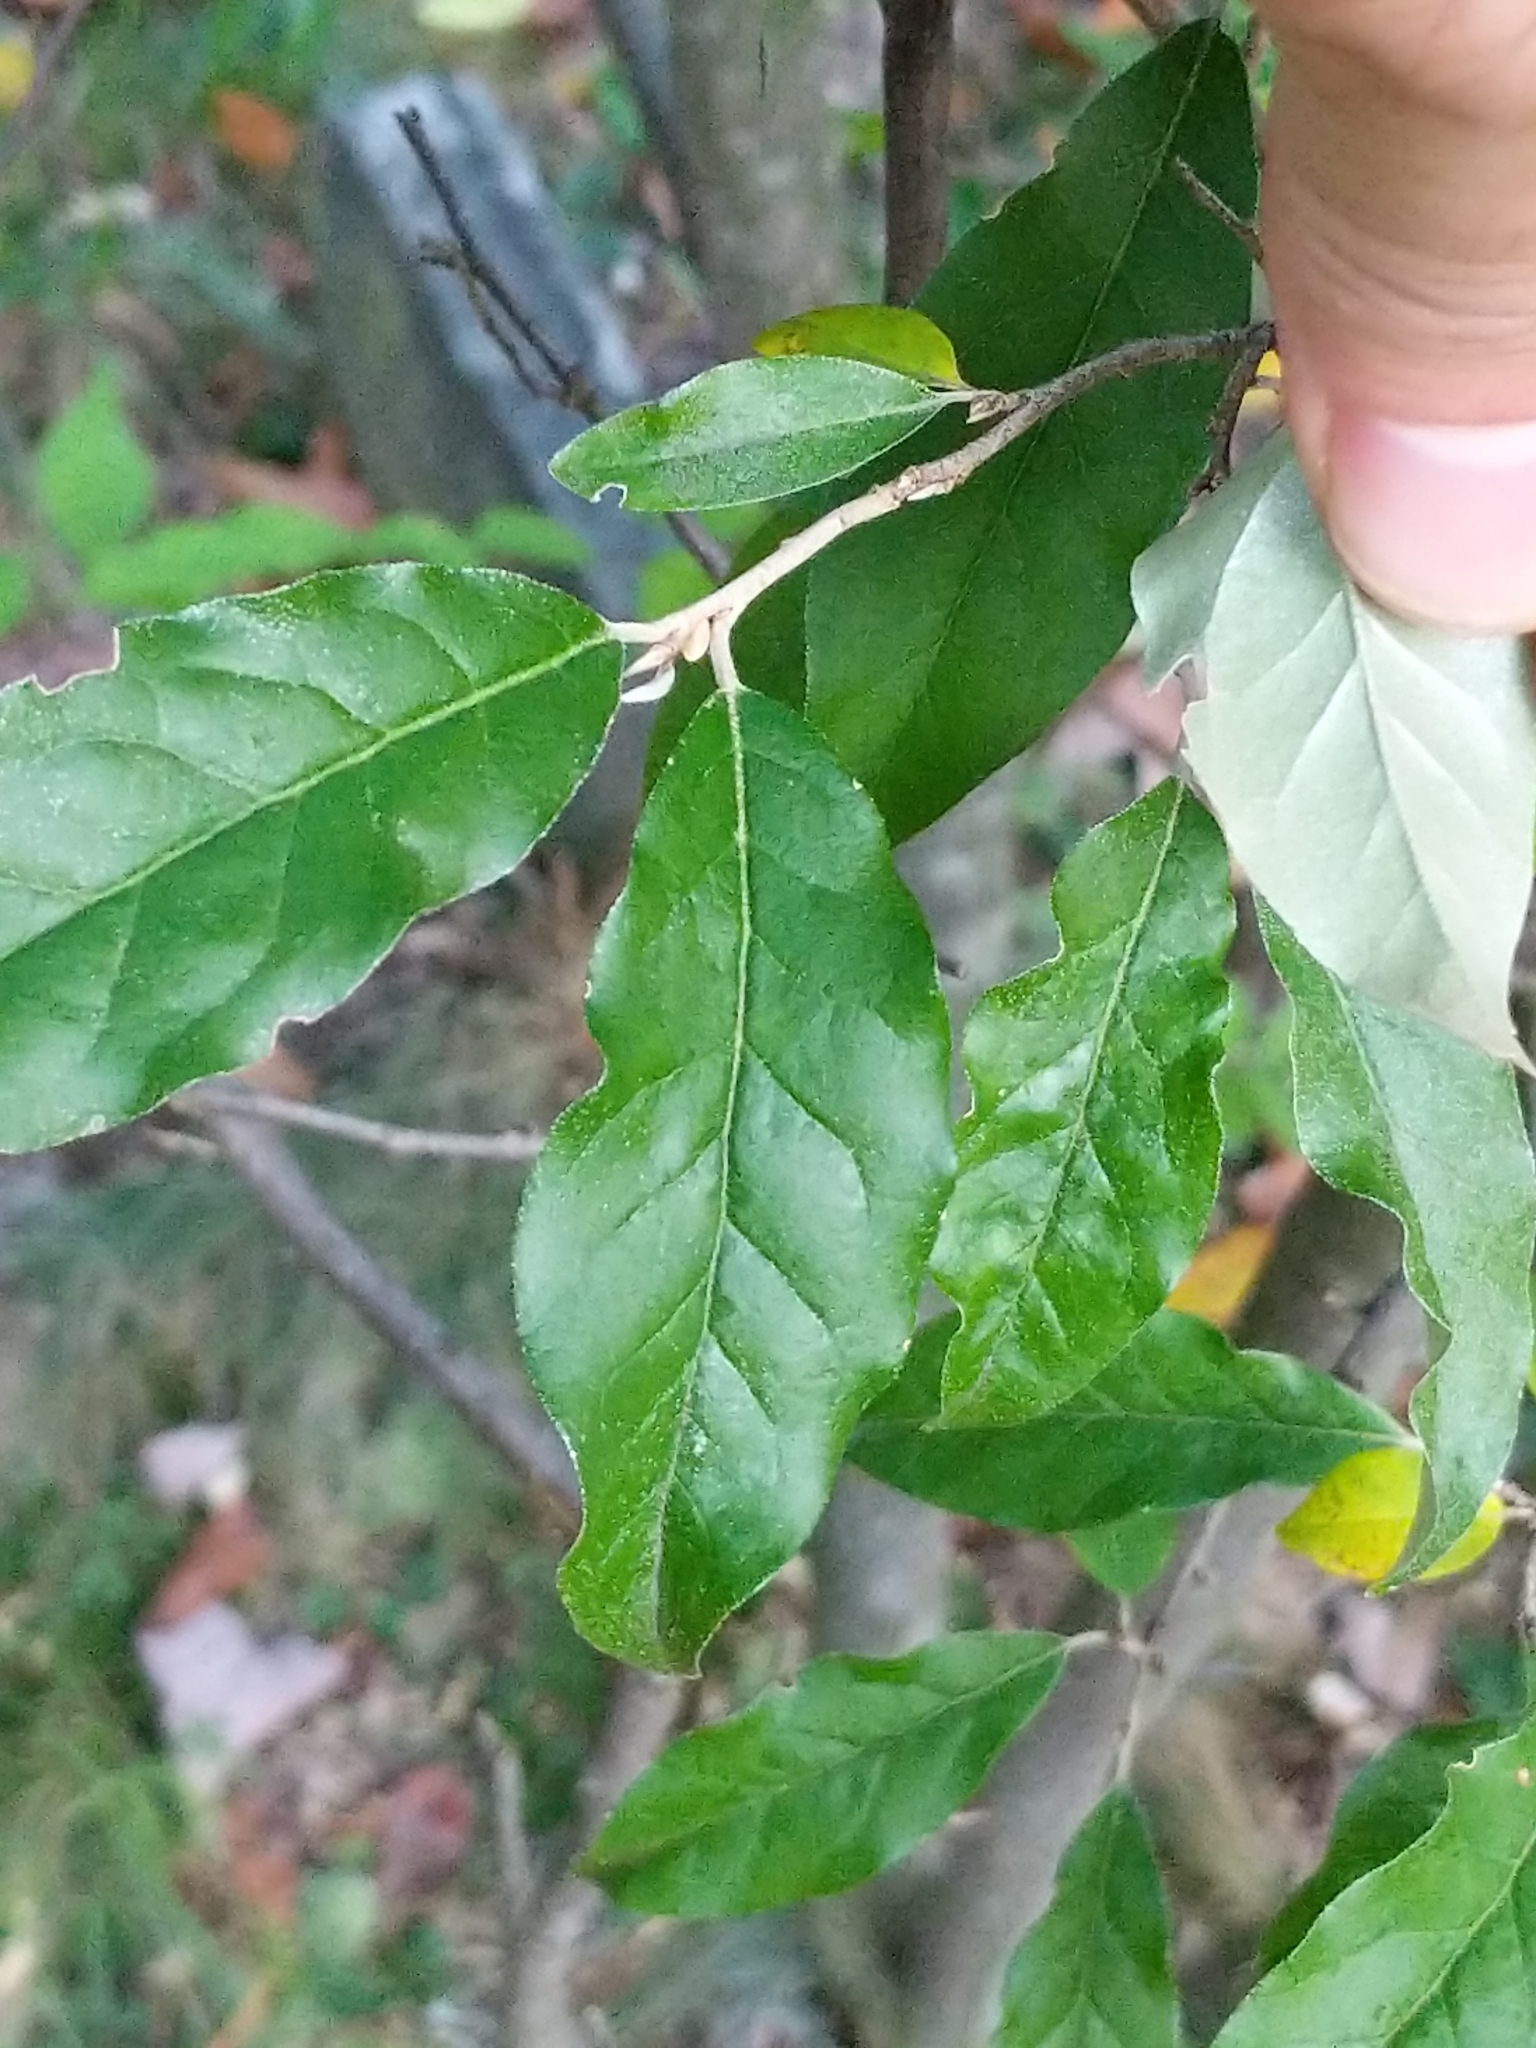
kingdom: Plantae
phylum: Tracheophyta
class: Magnoliopsida
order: Rosales
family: Elaeagnaceae
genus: Elaeagnus
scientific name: Elaeagnus umbellata
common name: Autumn olive
